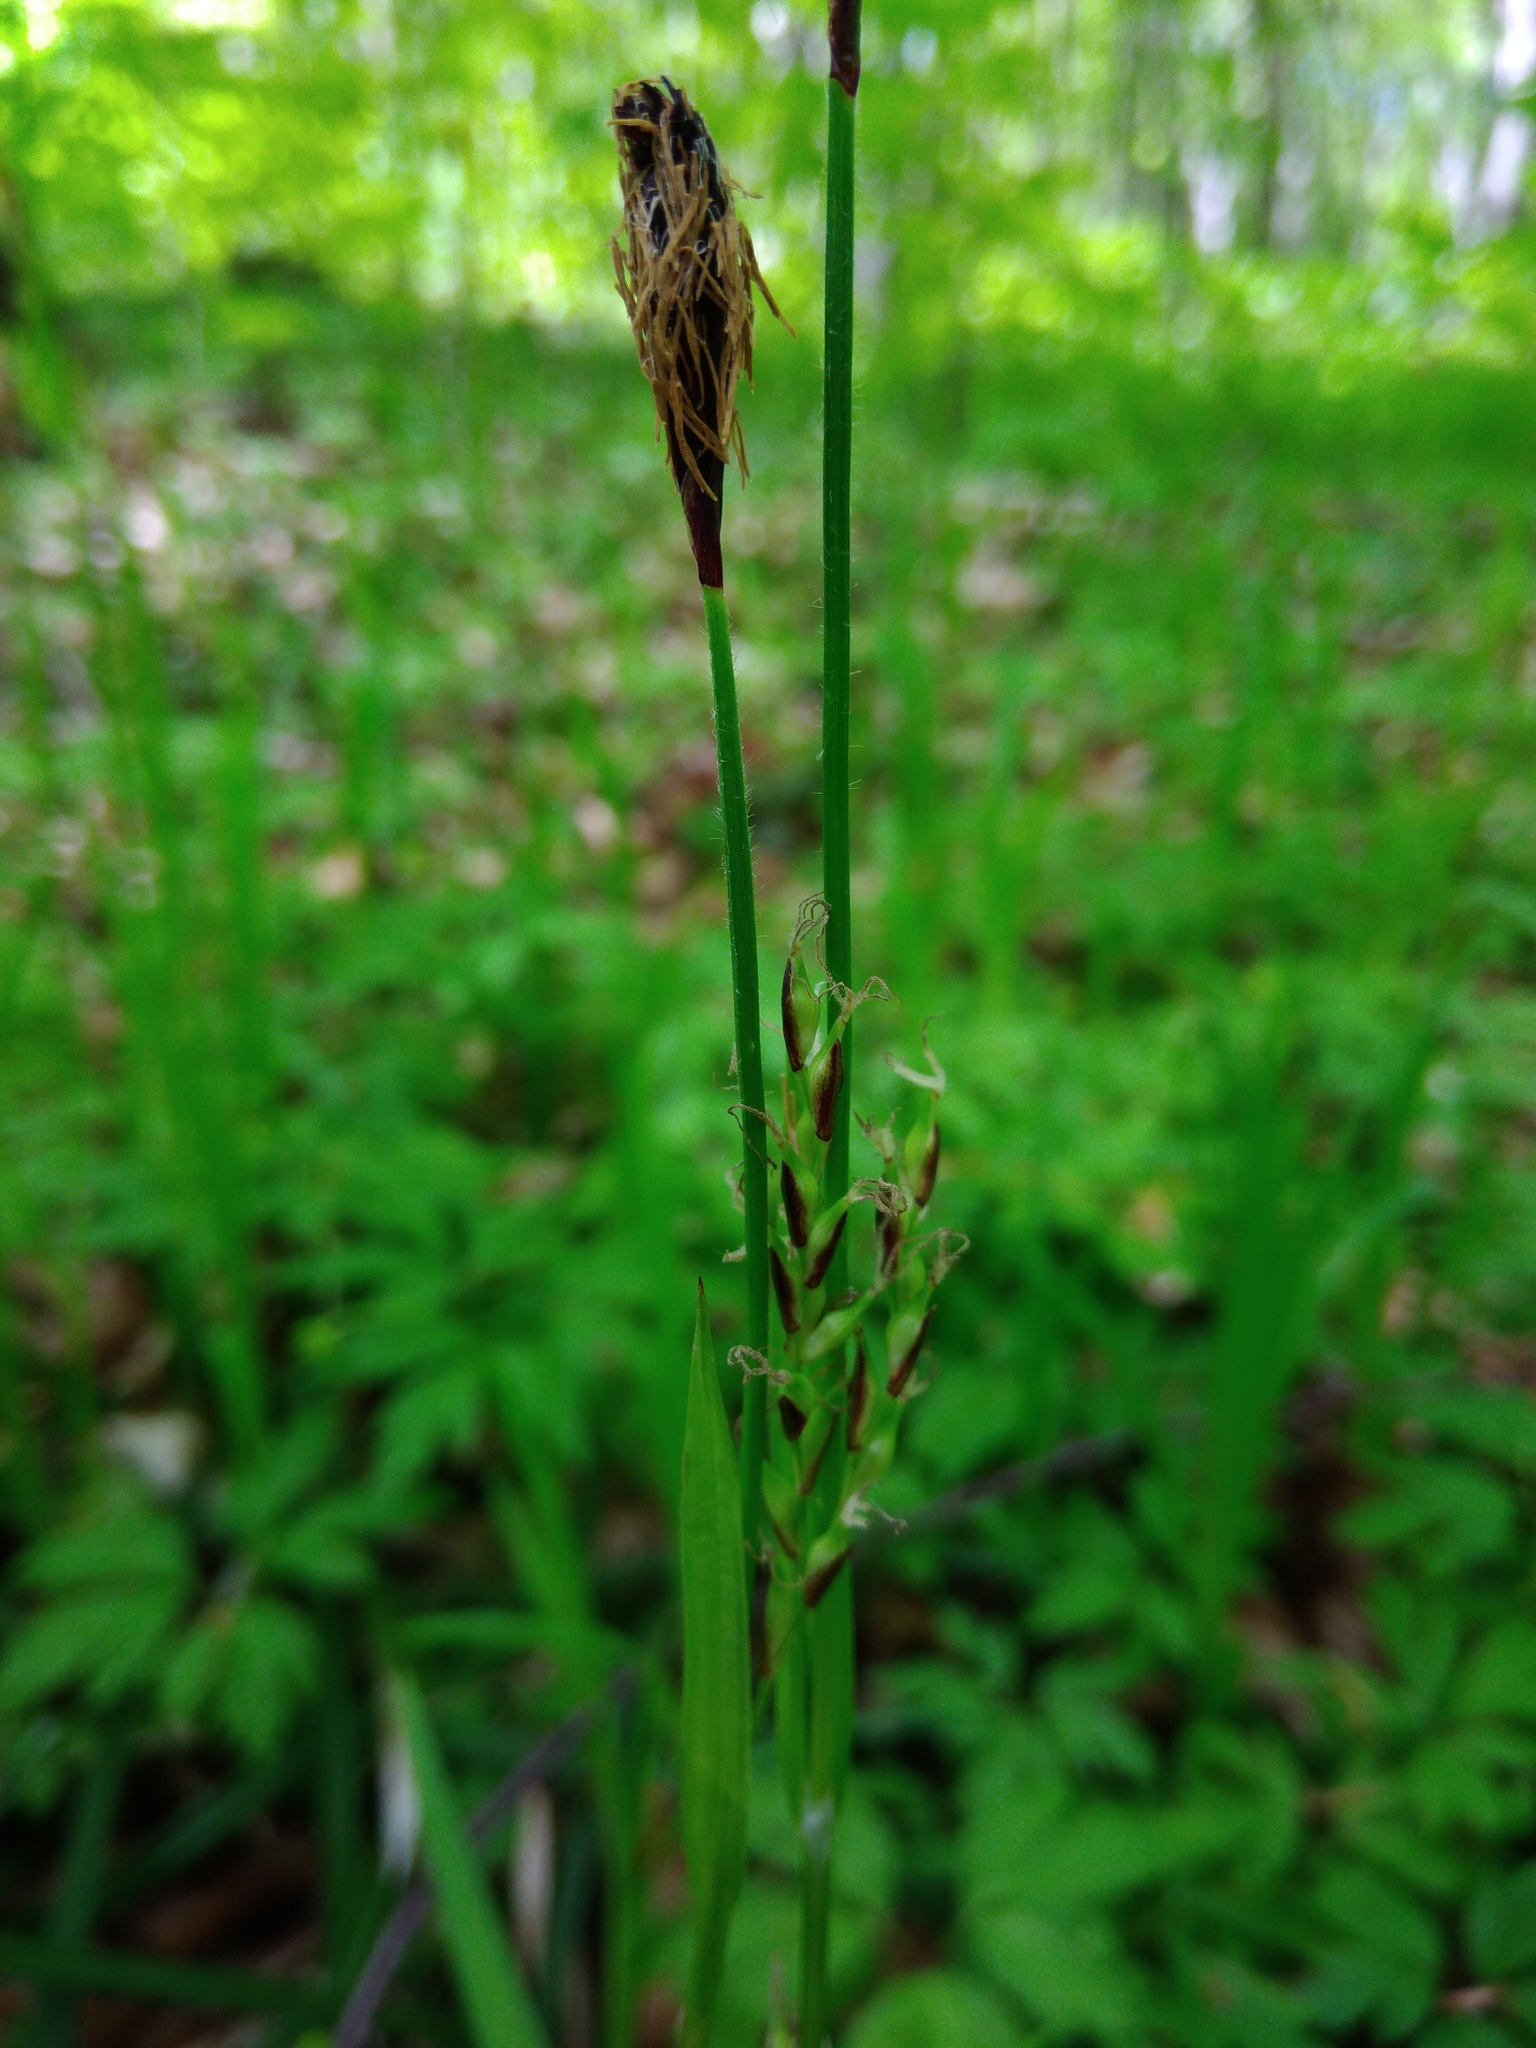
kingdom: Plantae
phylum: Tracheophyta
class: Liliopsida
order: Poales
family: Cyperaceae
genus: Carex
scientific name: Carex pilosa
